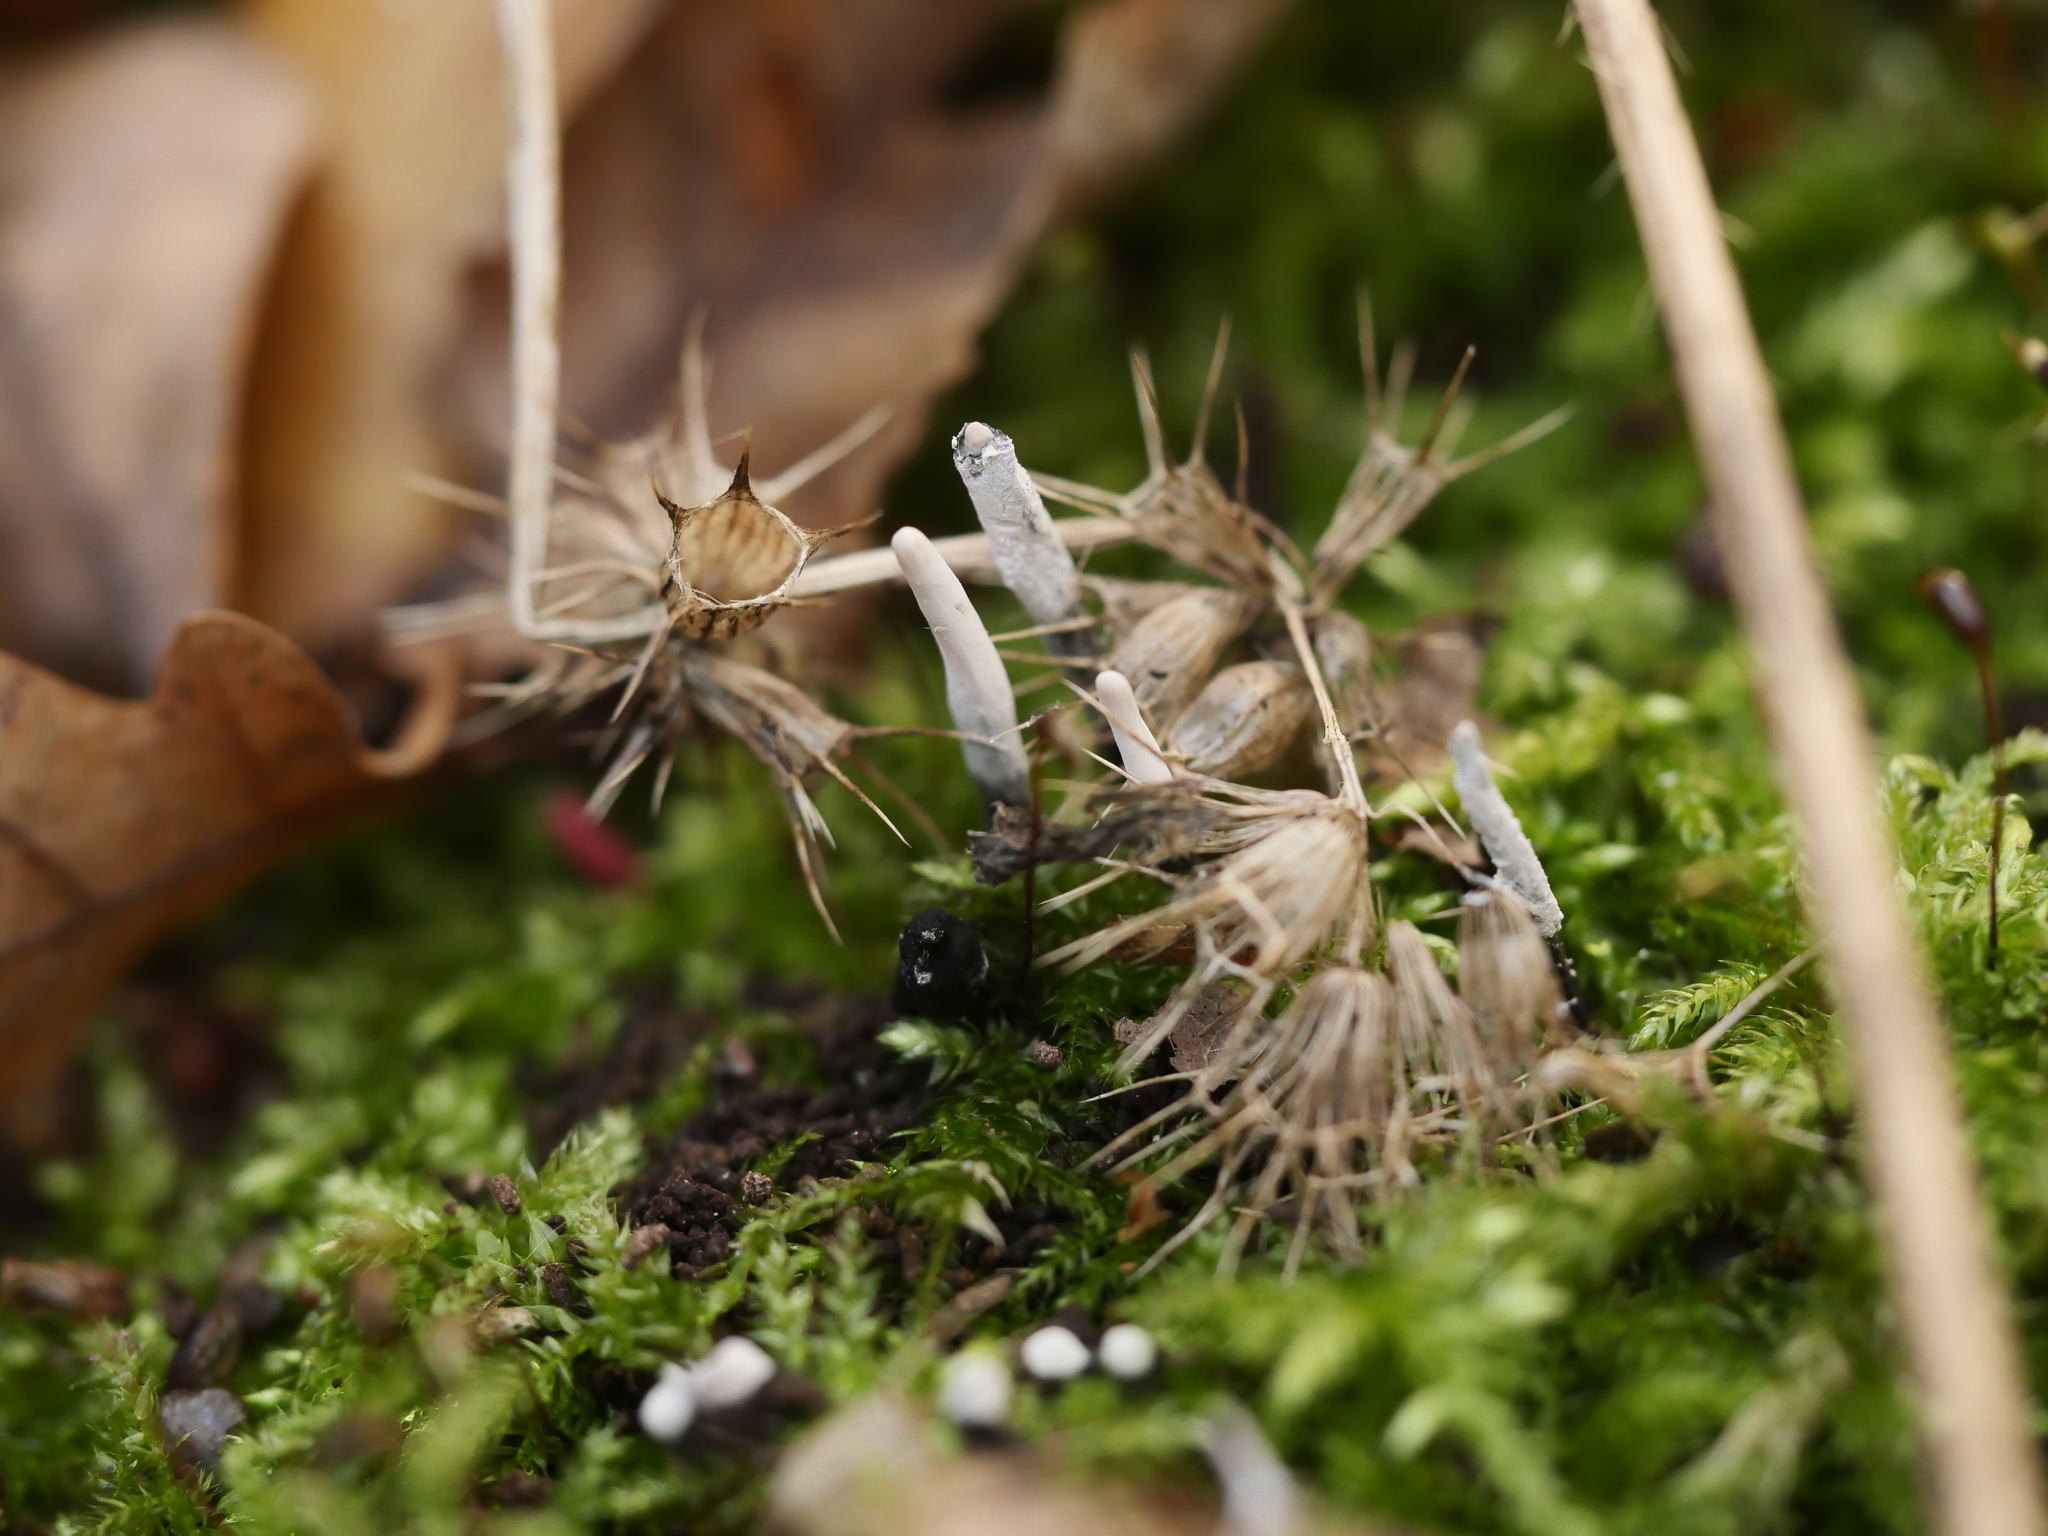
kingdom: Fungi
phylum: Ascomycota
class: Sordariomycetes
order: Xylariales
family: Xylariaceae
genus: Xylaria
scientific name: Xylaria hypoxylon
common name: Candle-snuff fungus
